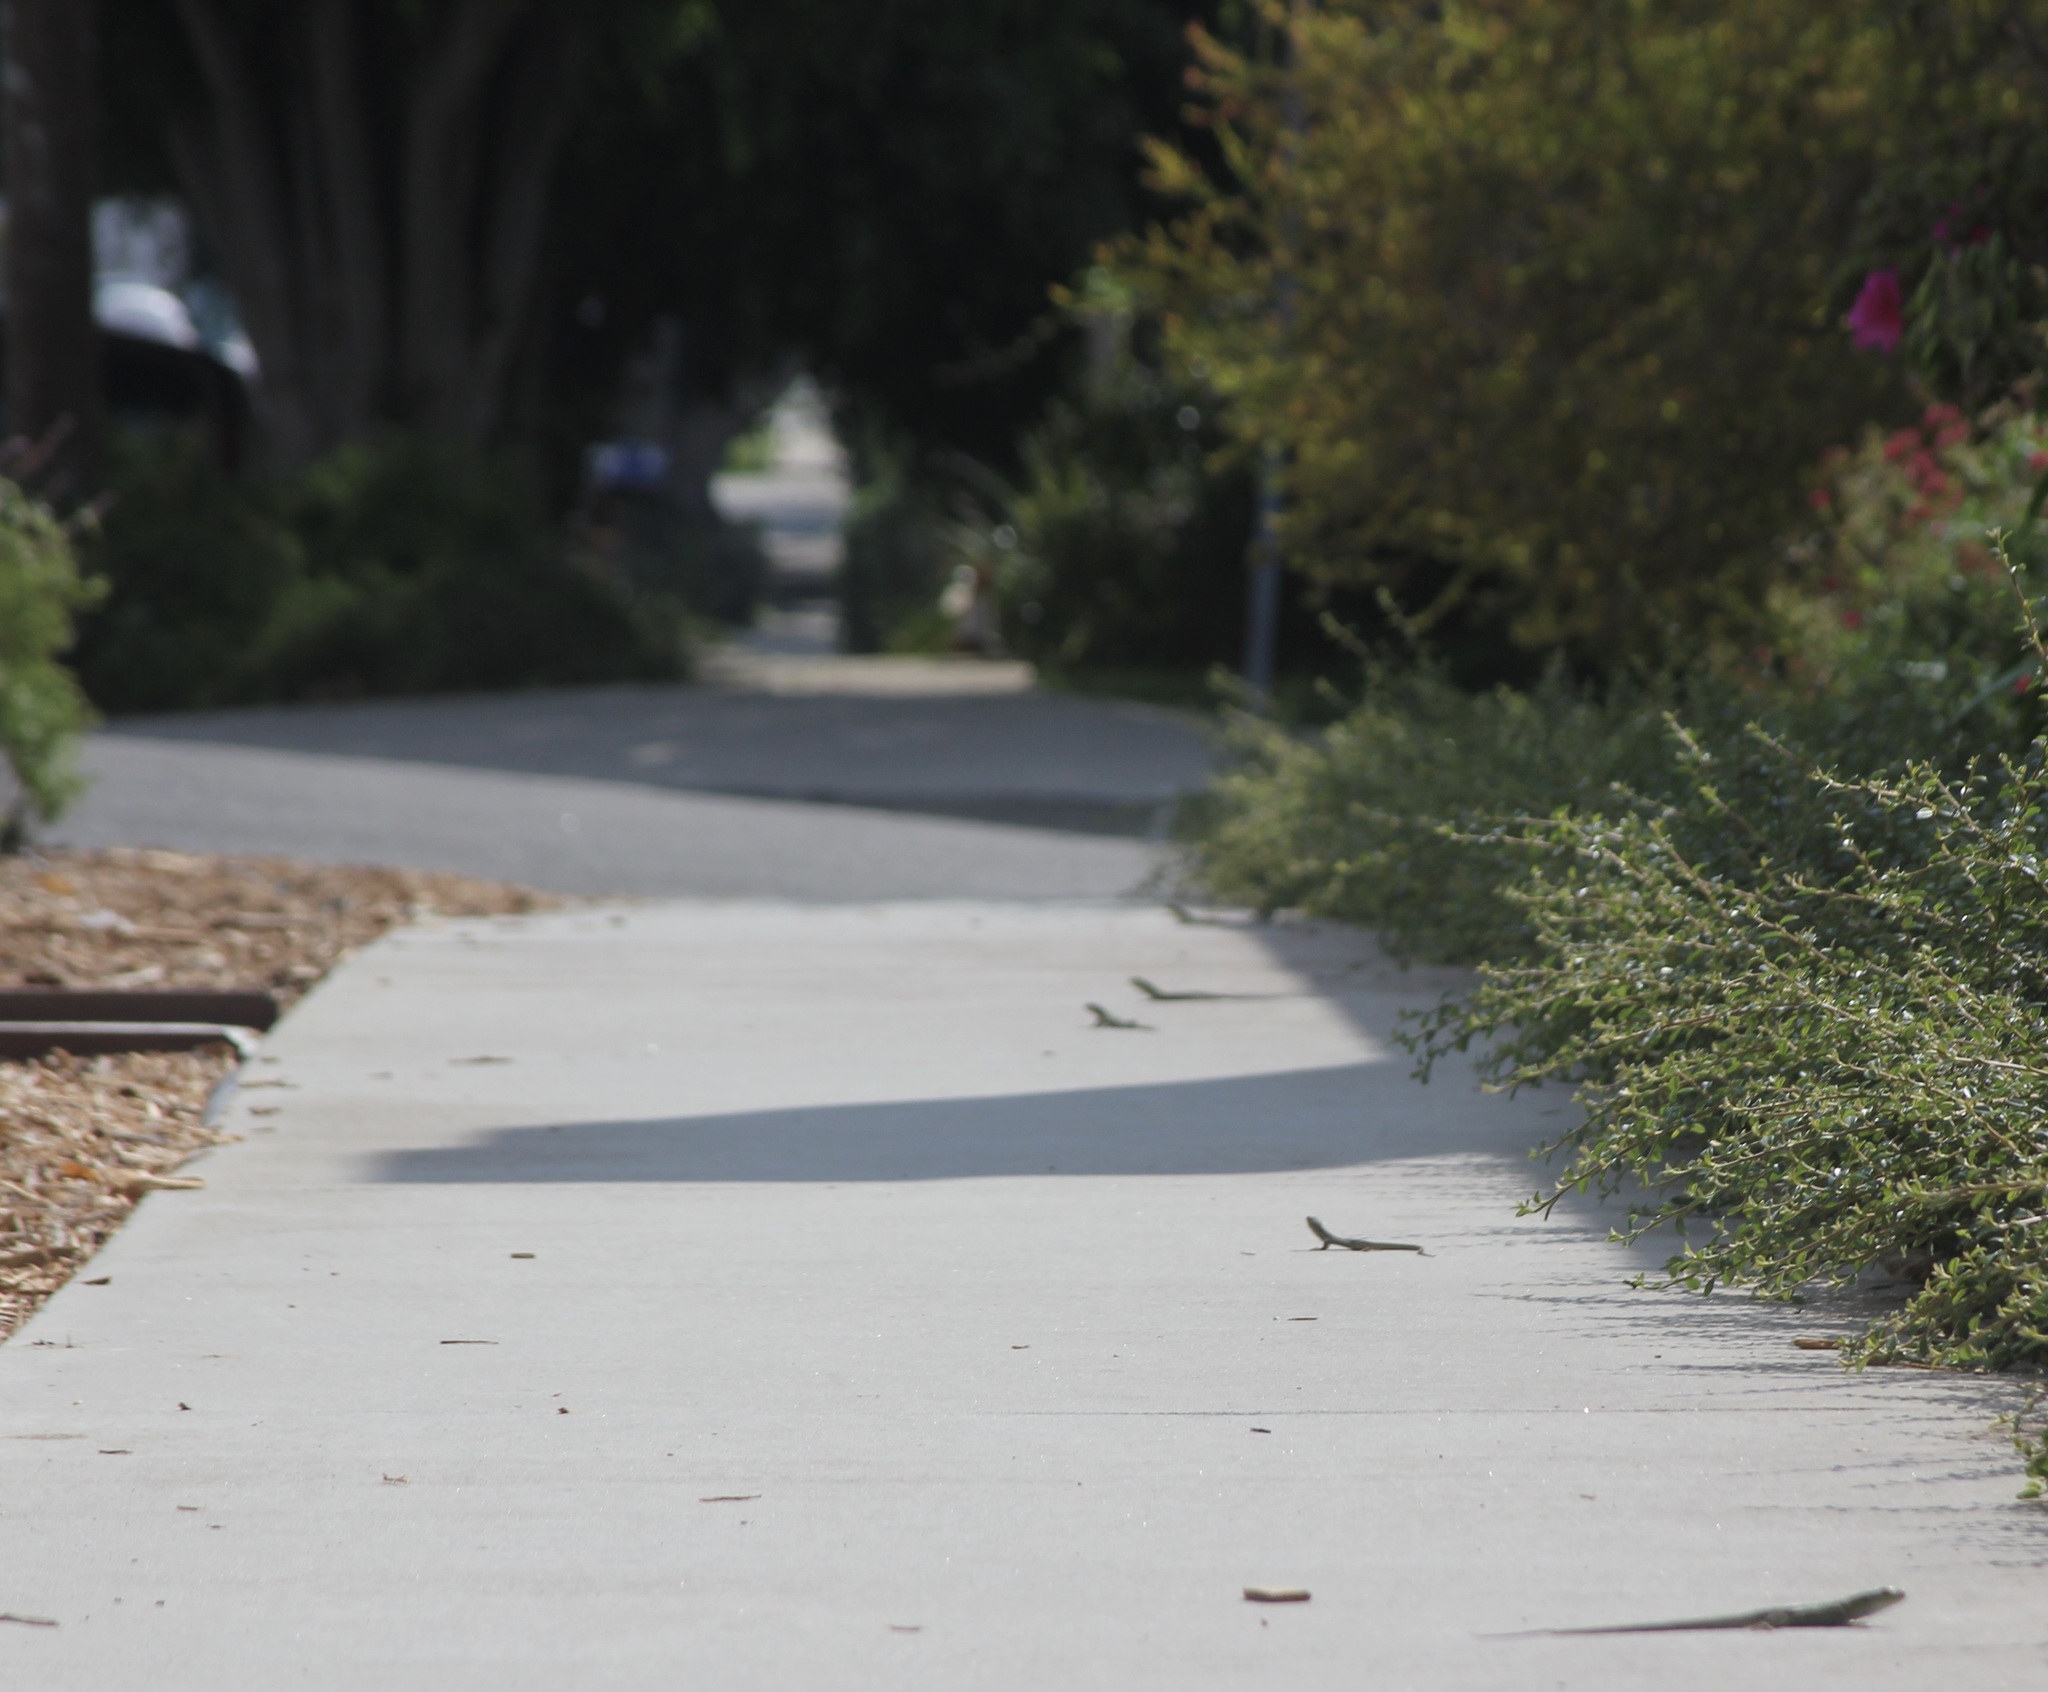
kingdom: Animalia
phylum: Chordata
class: Squamata
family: Lacertidae
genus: Podarcis
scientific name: Podarcis siculus
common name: Italian wall lizard
